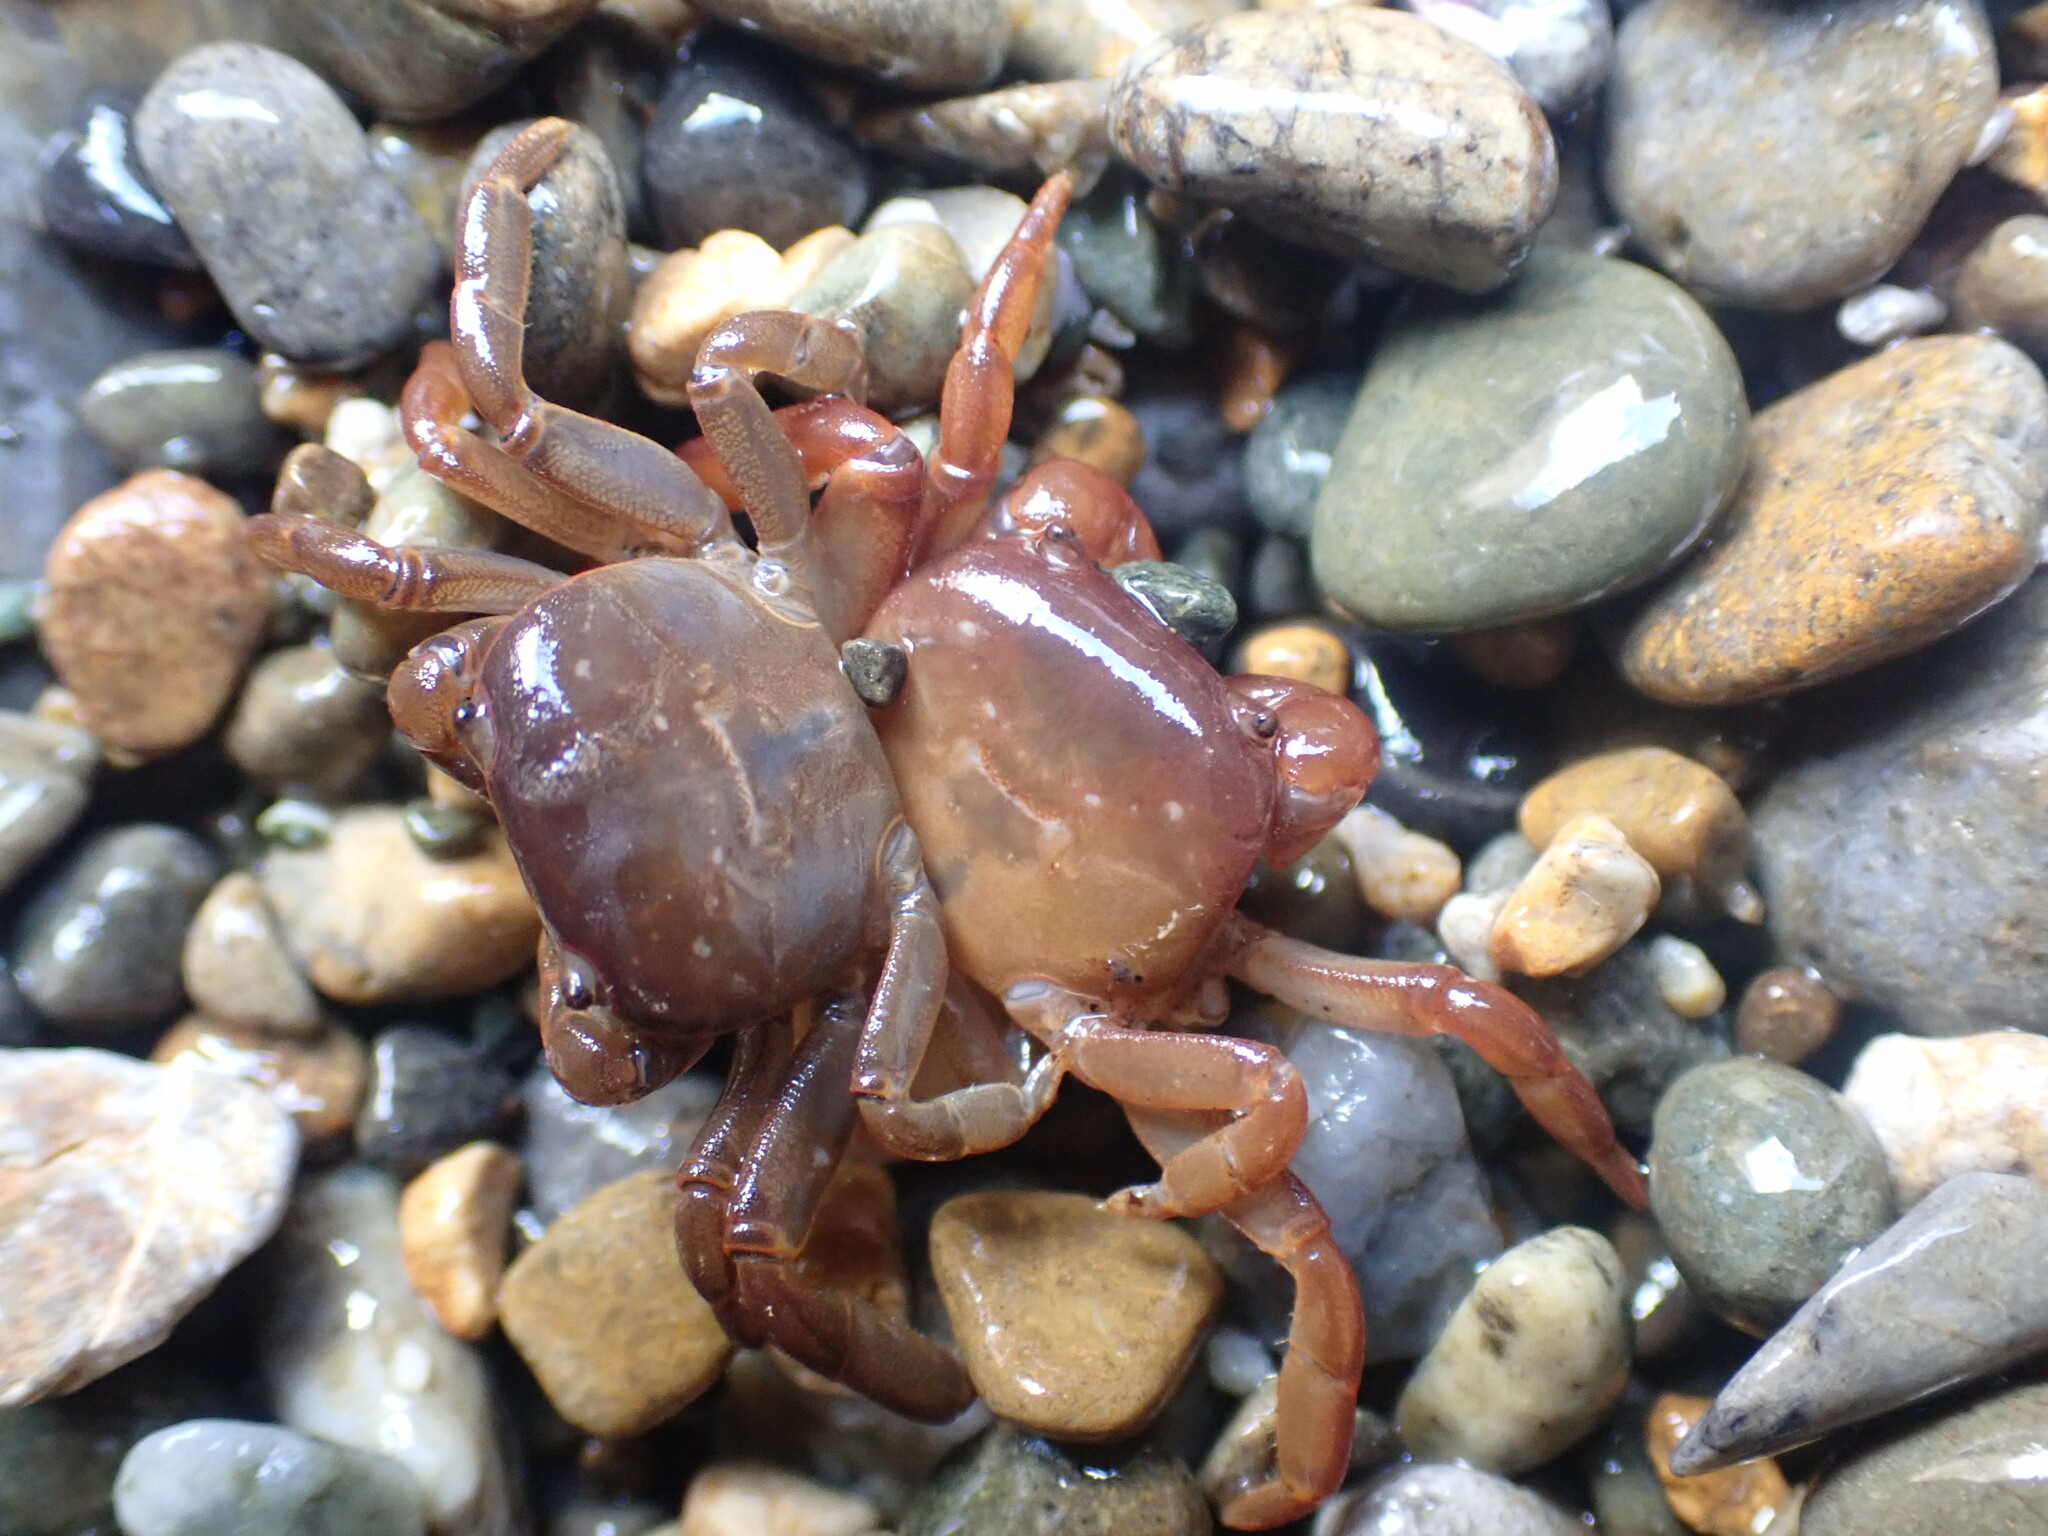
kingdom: Animalia
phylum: Arthropoda
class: Malacostraca
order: Decapoda
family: Varunidae
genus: Cyclograpsus
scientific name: Cyclograpsus insularum
